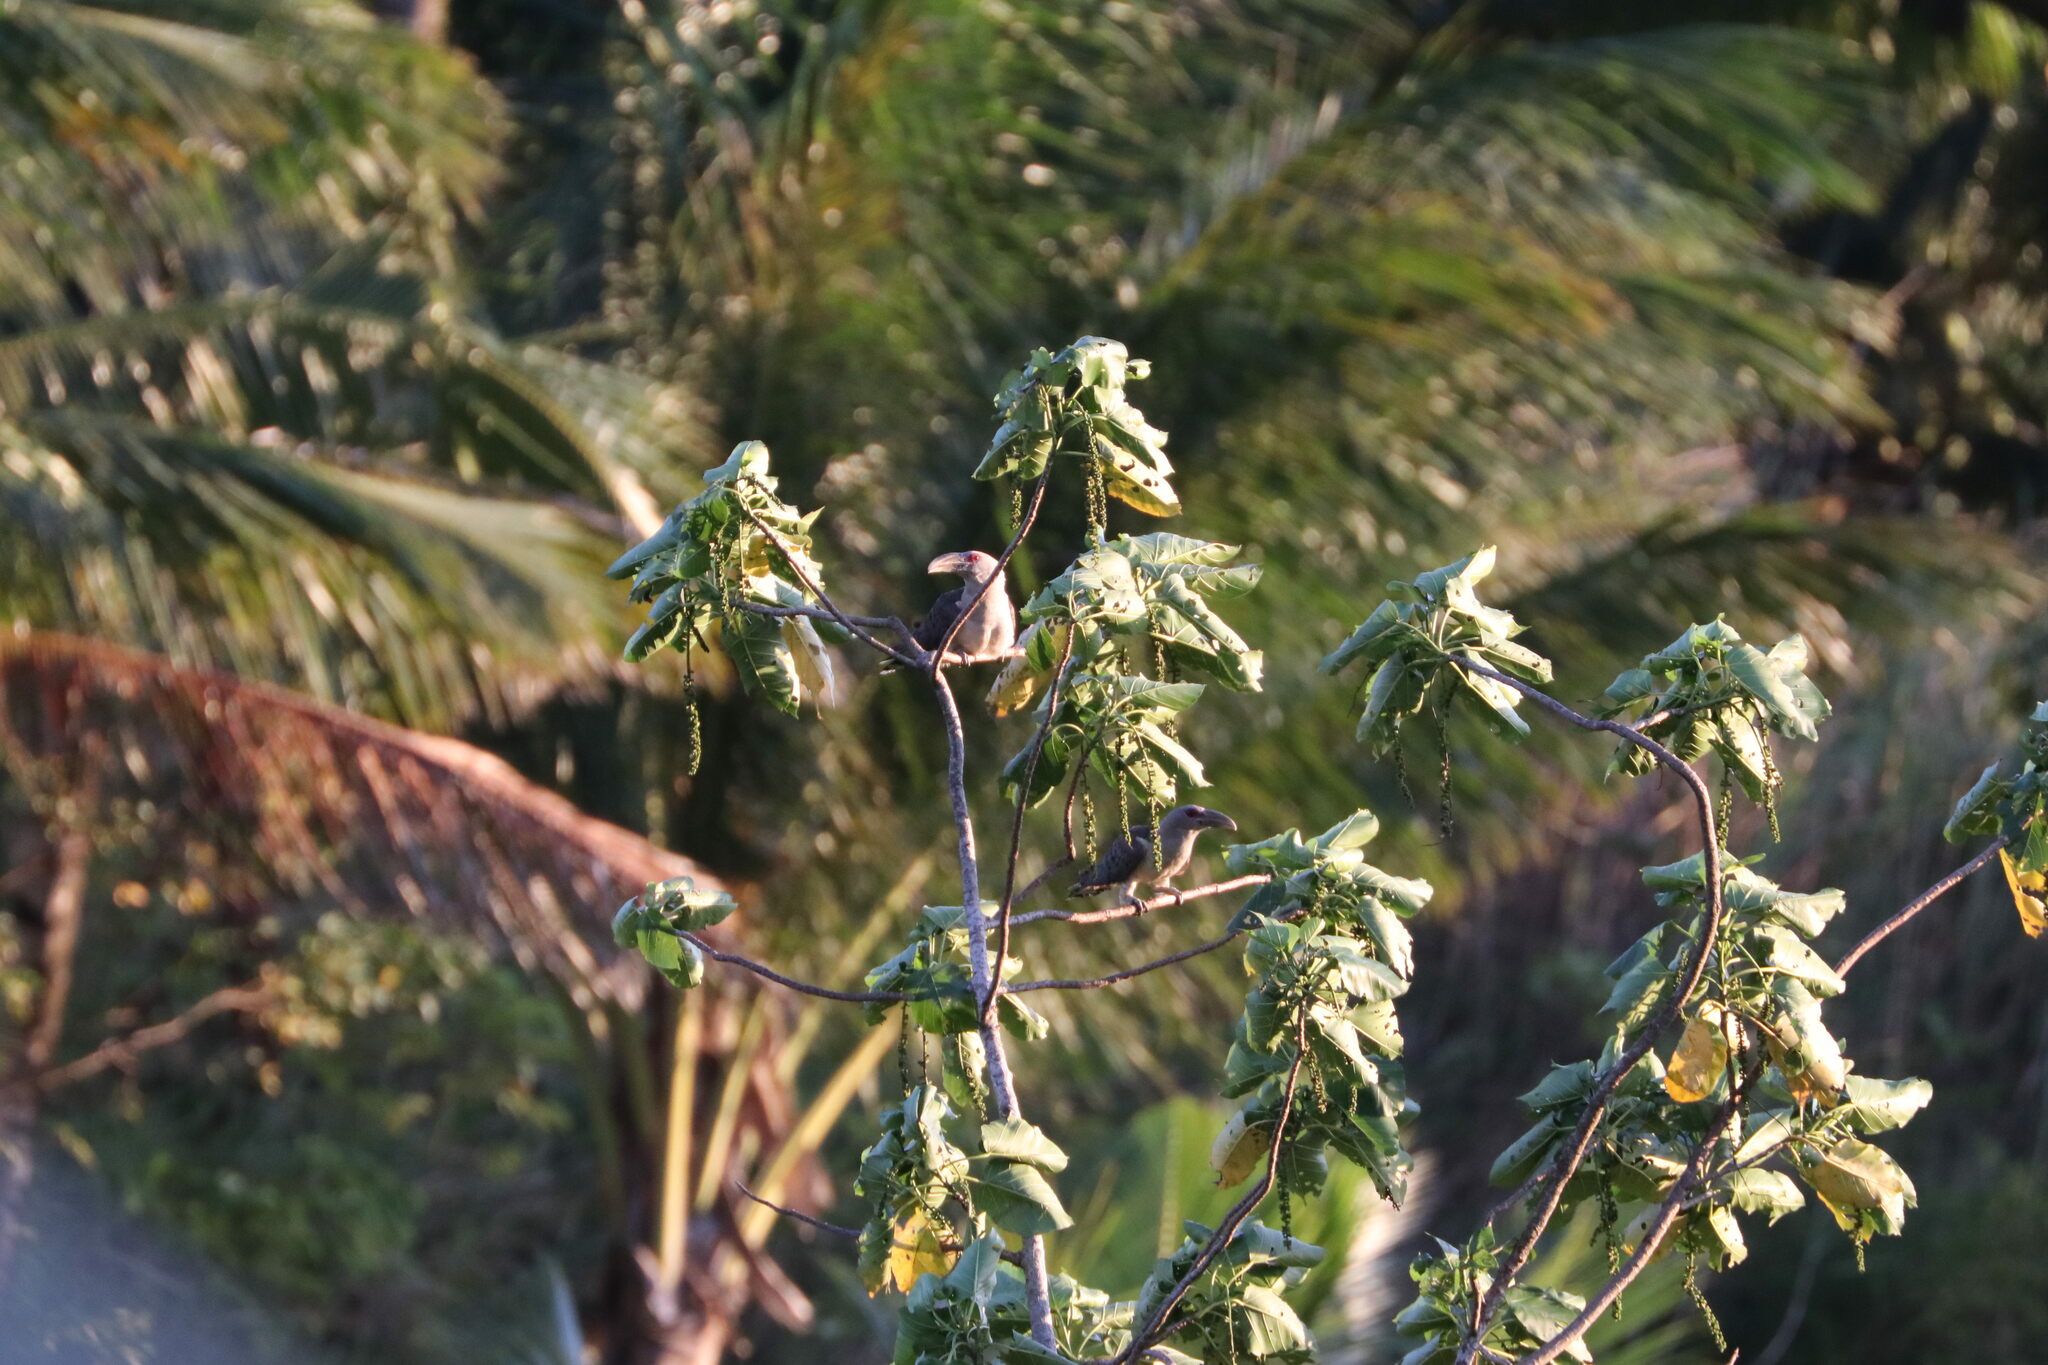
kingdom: Animalia
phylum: Chordata
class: Aves
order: Cuculiformes
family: Cuculidae
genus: Scythrops
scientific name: Scythrops novaehollandiae
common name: Channel-billed cuckoo
